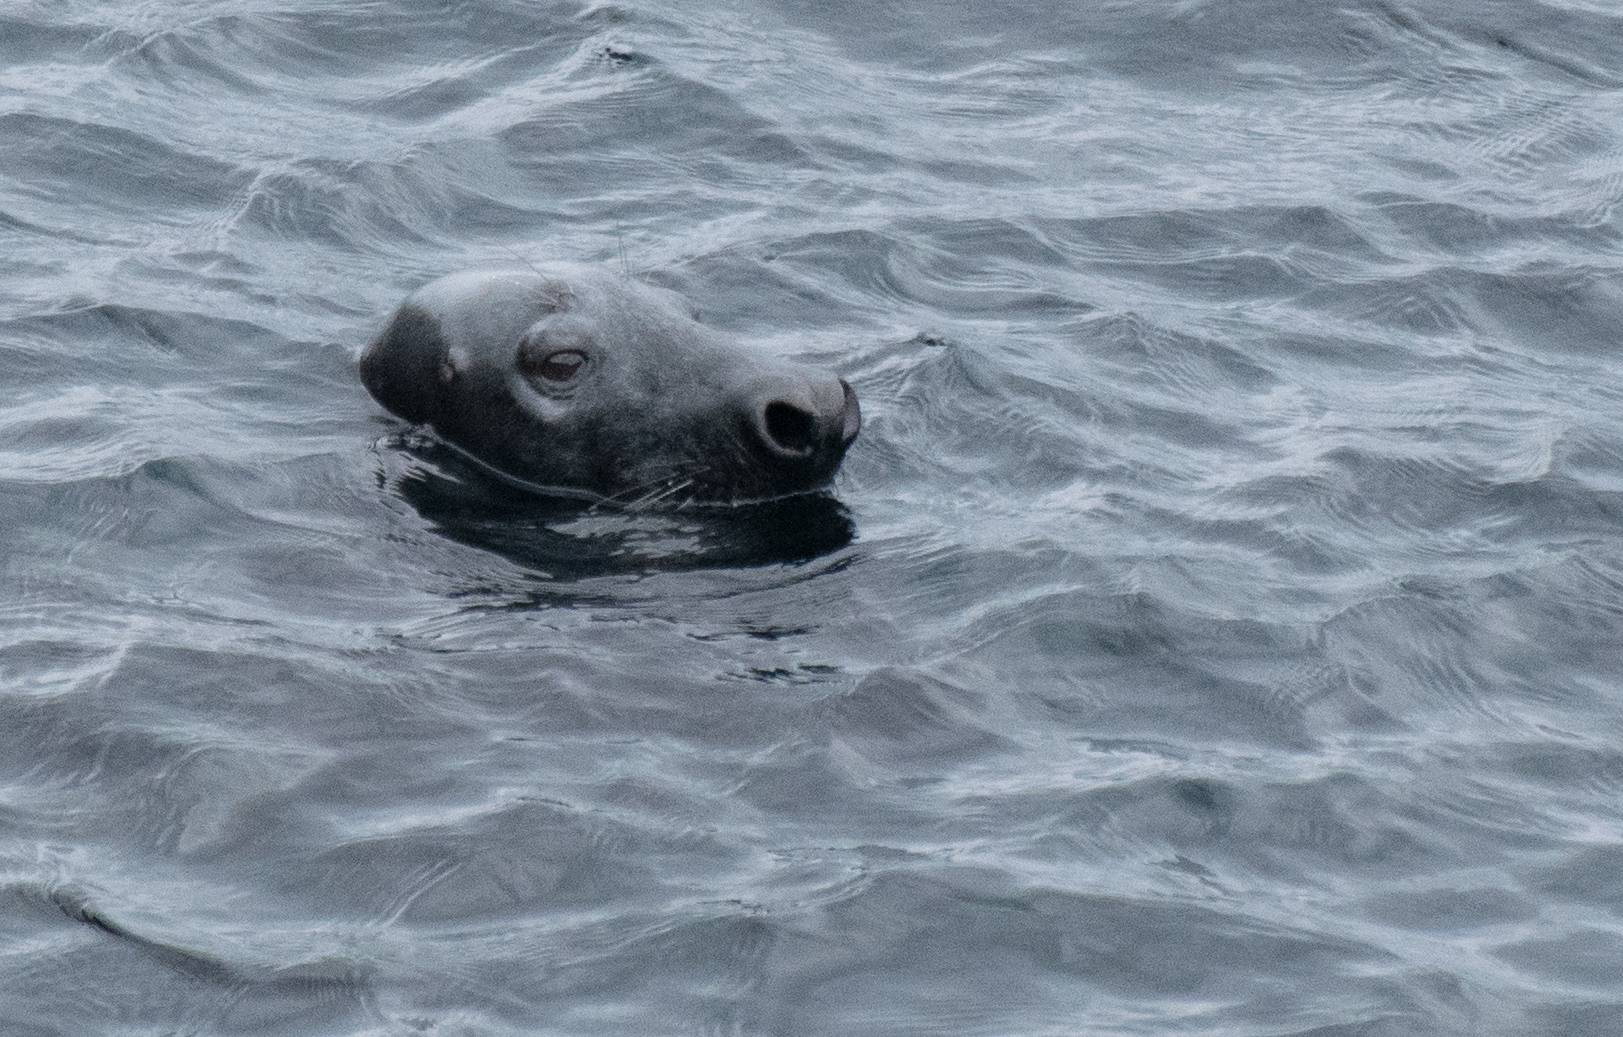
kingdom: Animalia
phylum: Chordata
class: Mammalia
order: Carnivora
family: Phocidae
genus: Halichoerus
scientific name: Halichoerus grypus
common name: Grey seal
